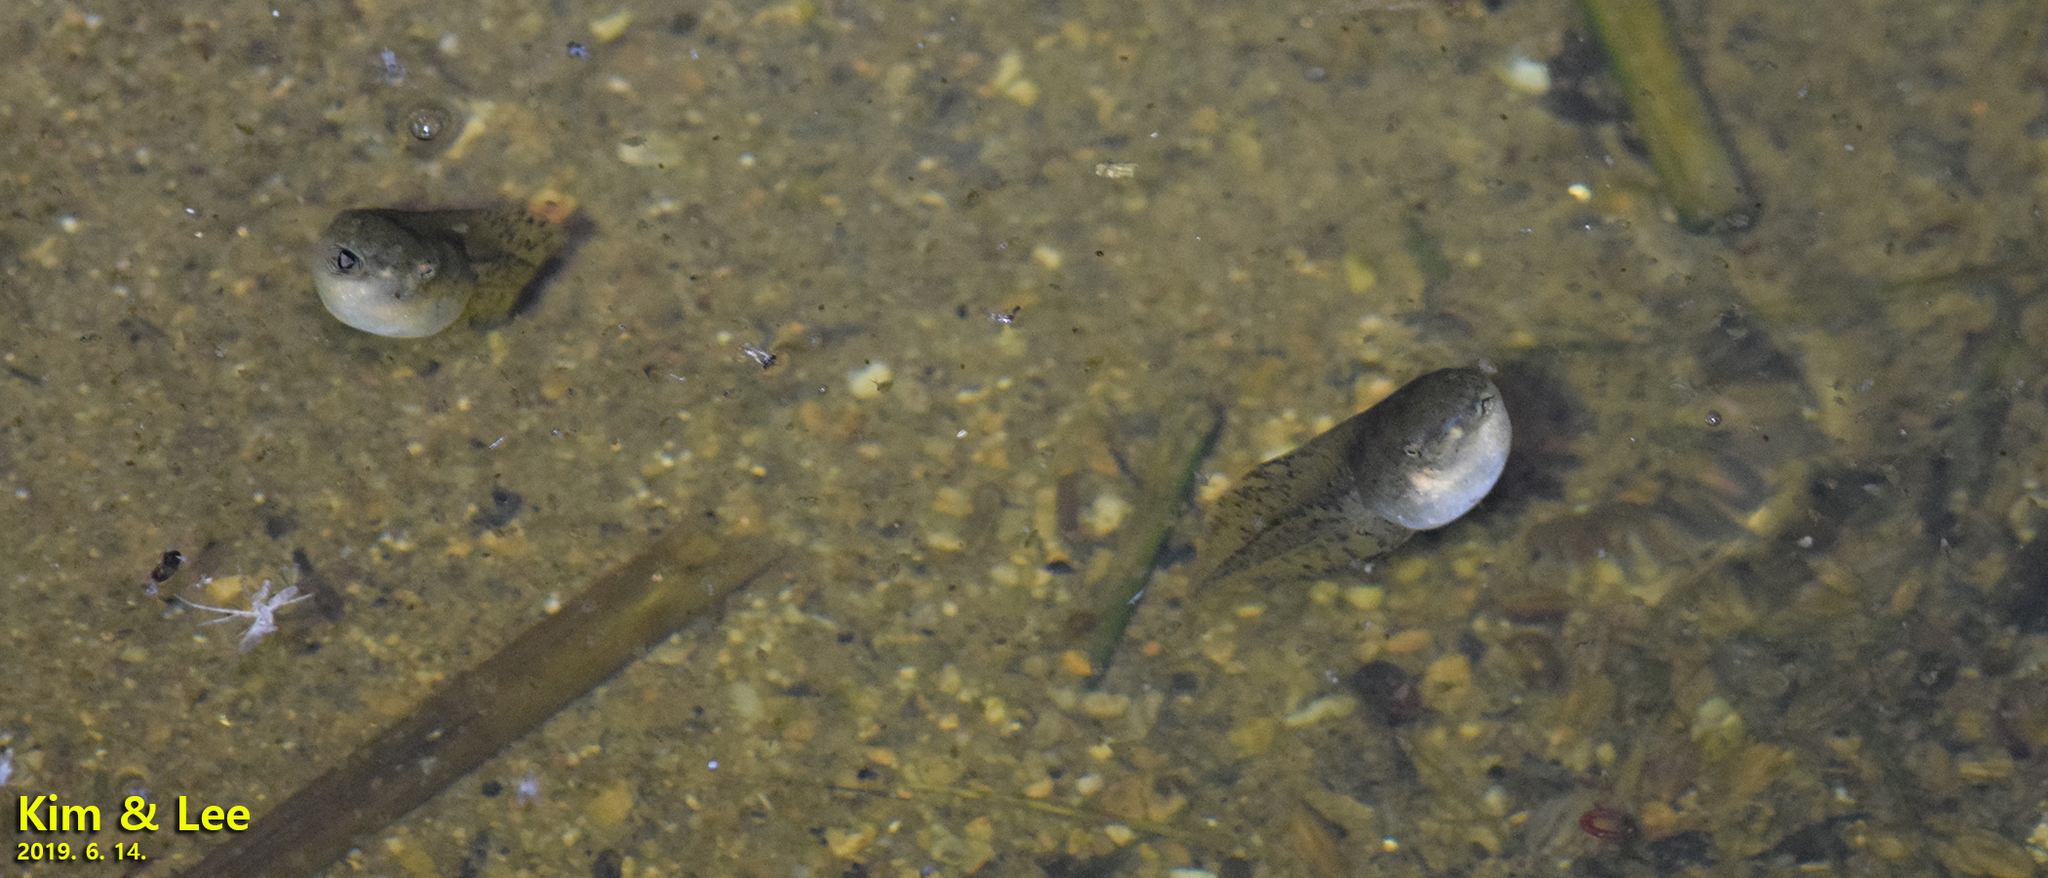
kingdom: Animalia
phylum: Chordata
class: Amphibia
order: Anura
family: Hylidae
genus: Dryophytes
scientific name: Dryophytes japonicus
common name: Japanese treefrog
